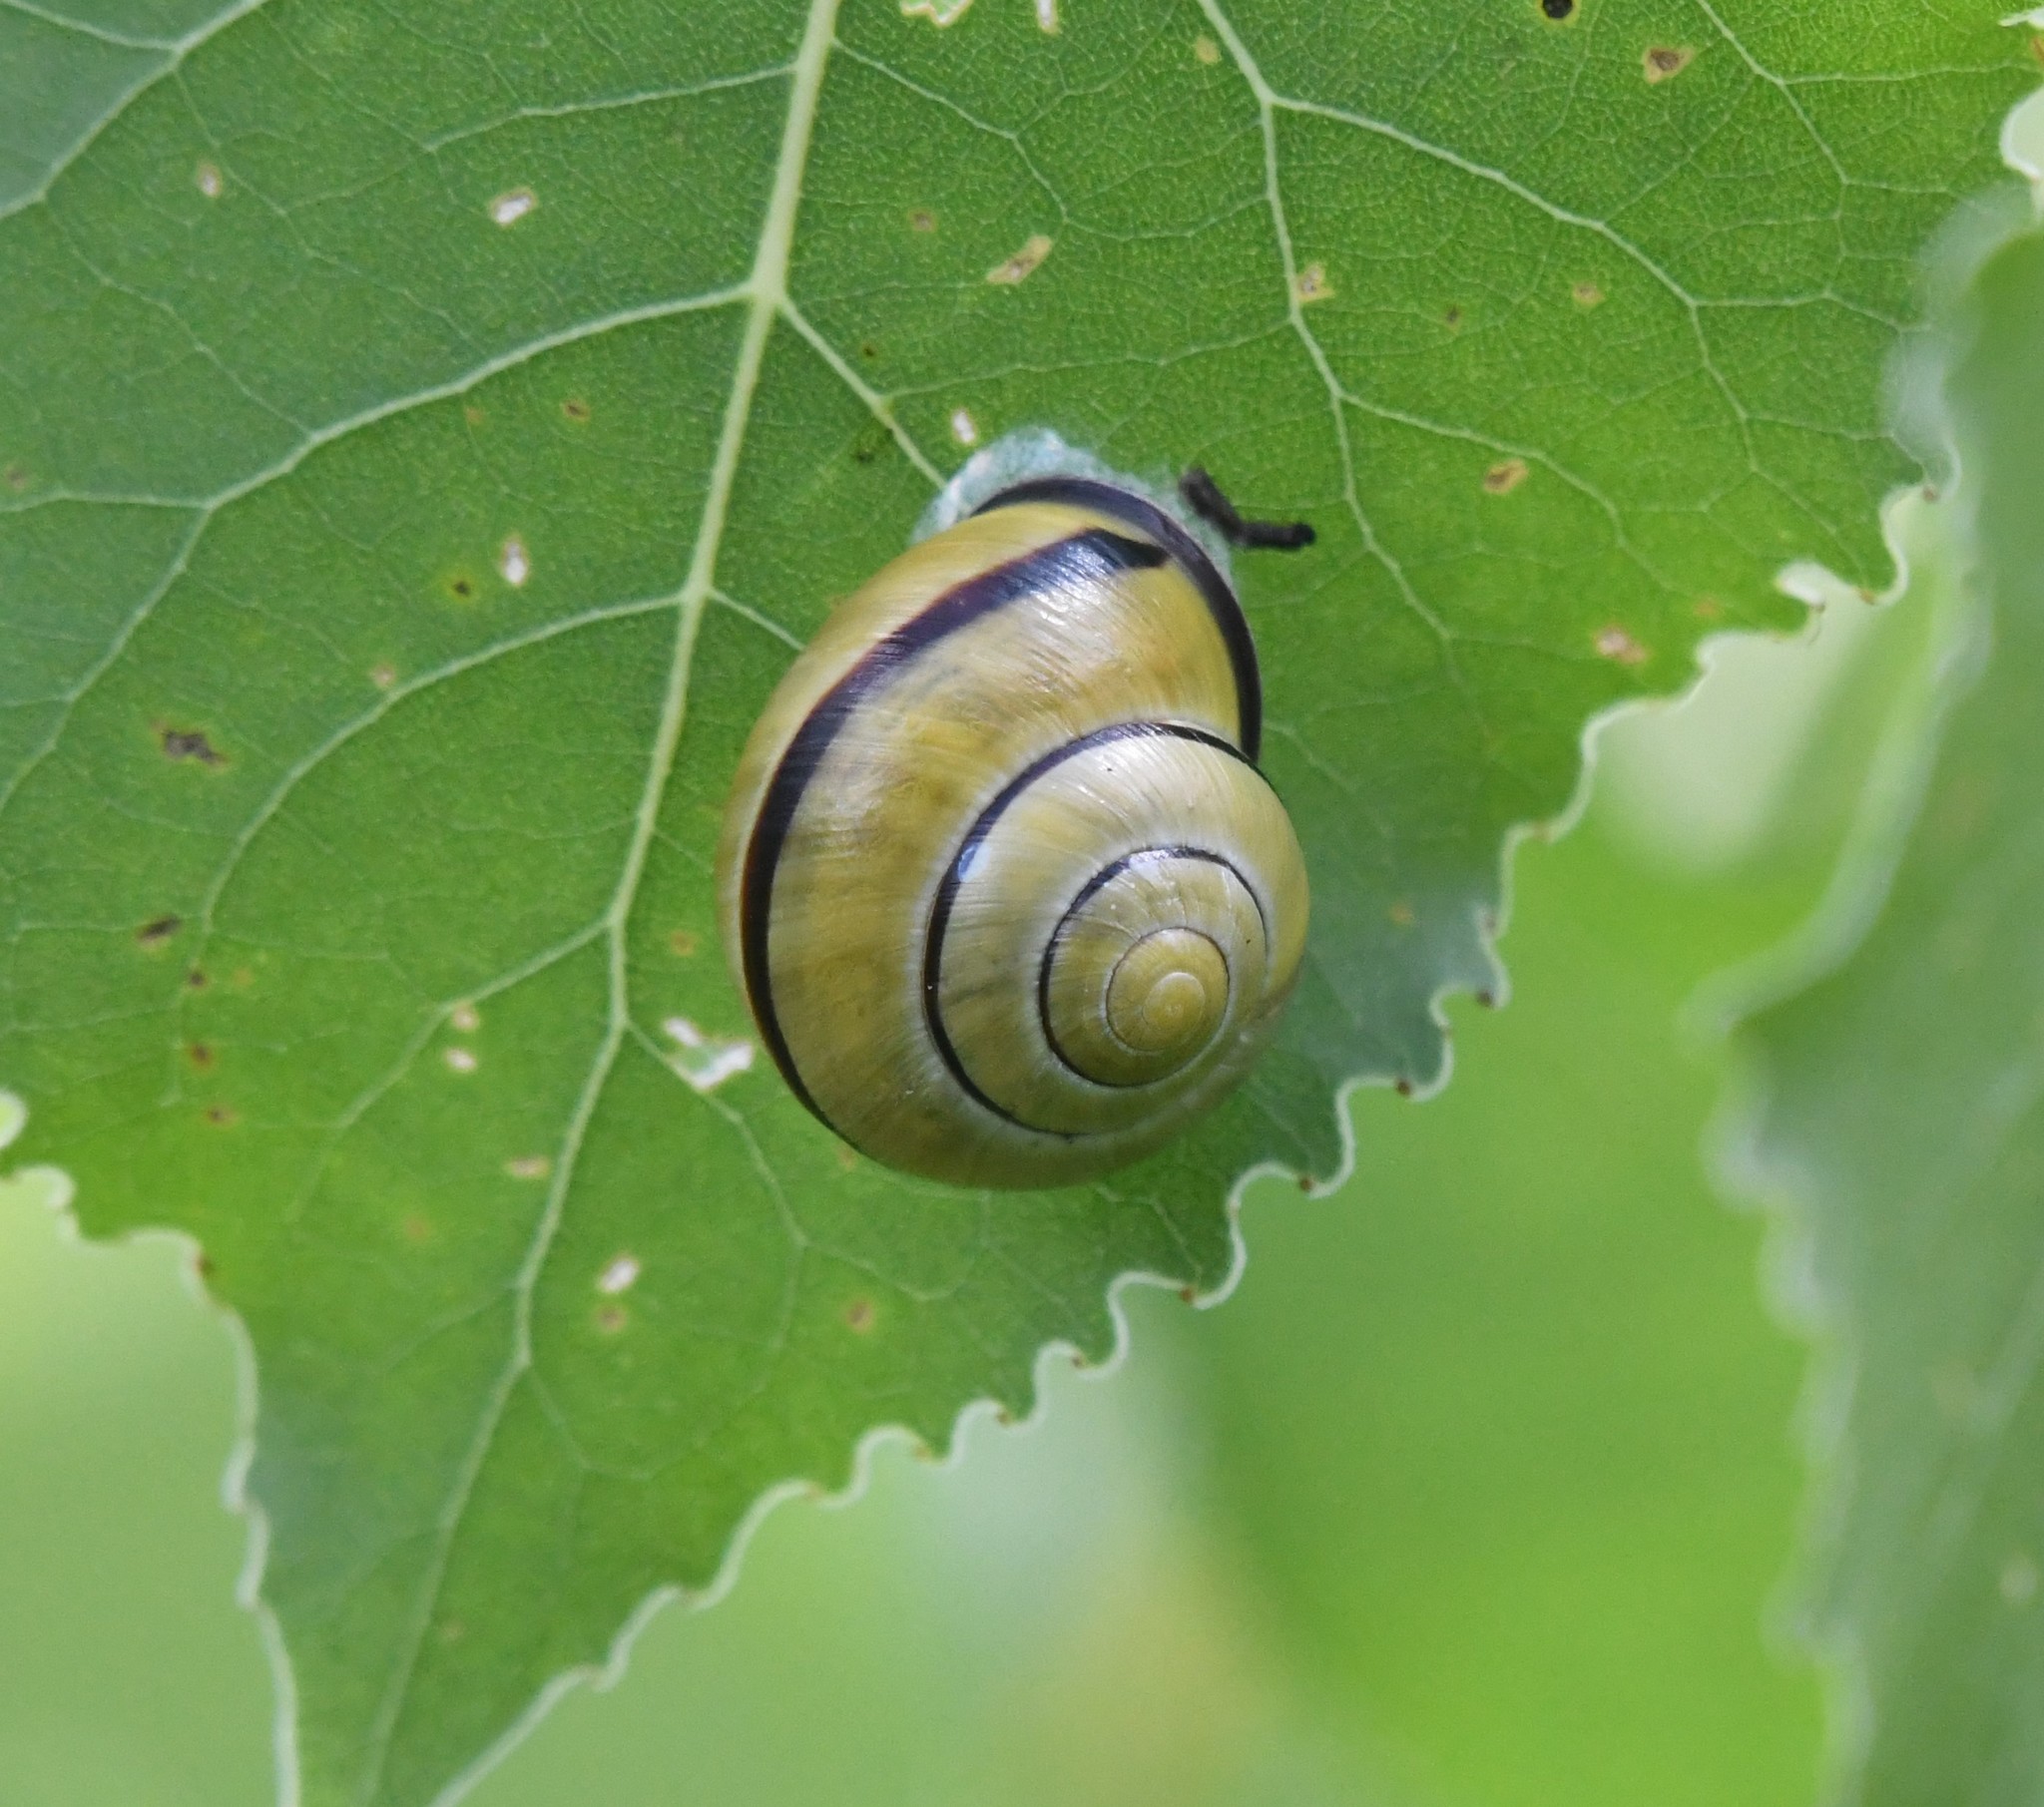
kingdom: Animalia
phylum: Mollusca
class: Gastropoda
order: Stylommatophora
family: Helicidae
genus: Cepaea
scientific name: Cepaea nemoralis
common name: Grovesnail
